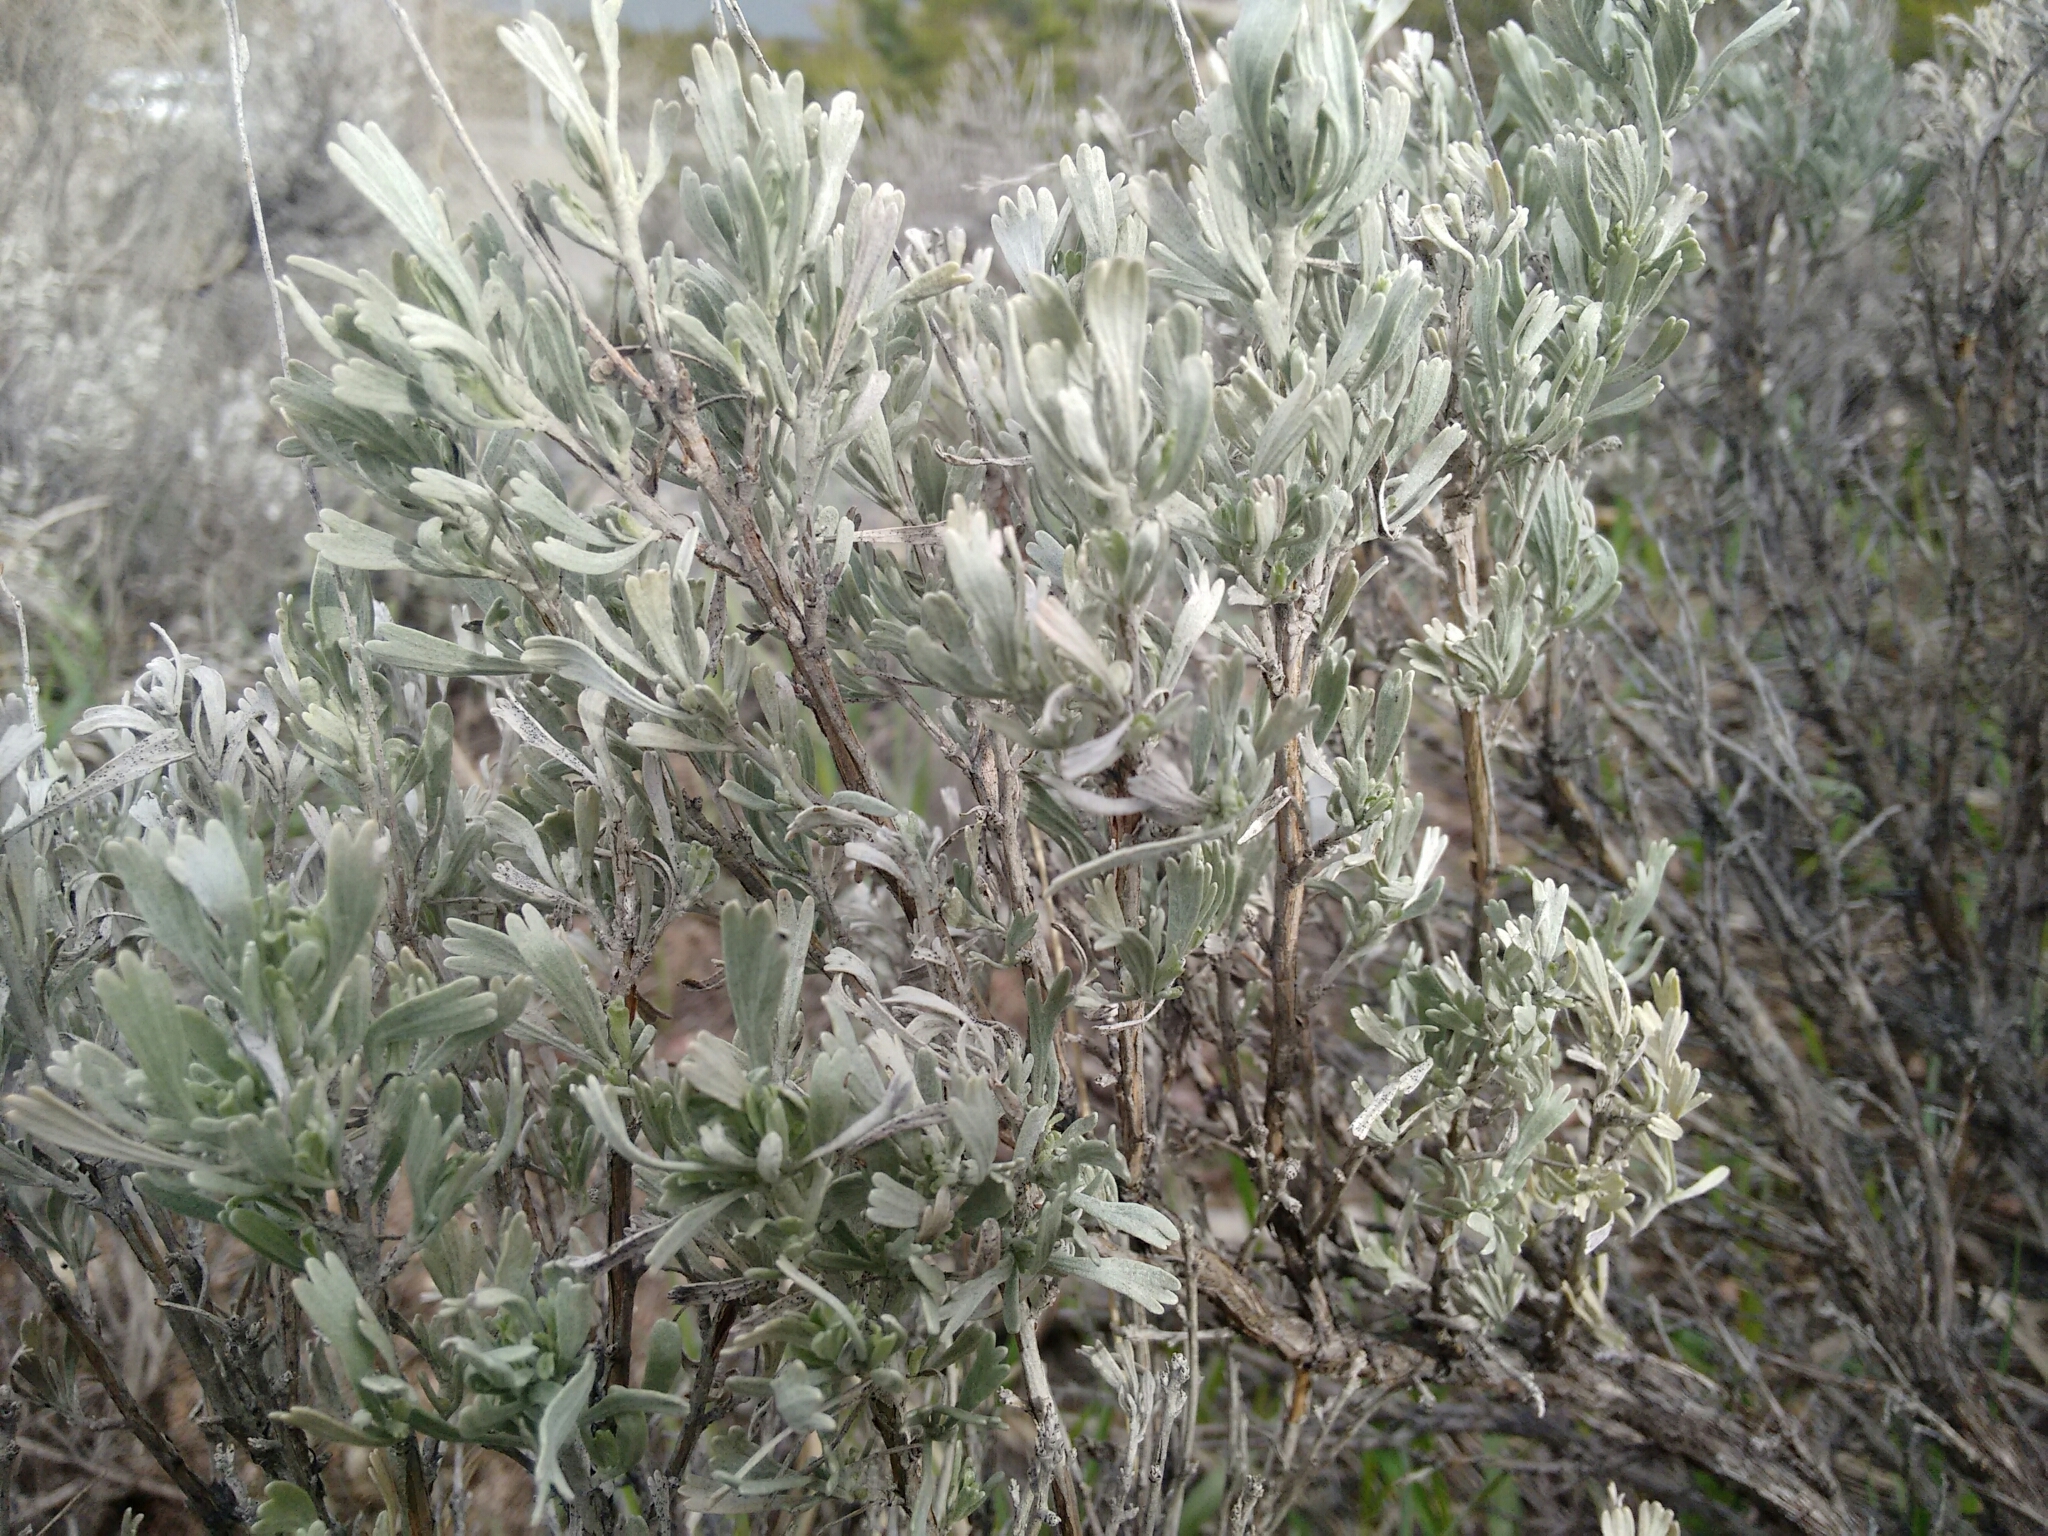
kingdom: Plantae
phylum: Tracheophyta
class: Magnoliopsida
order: Asterales
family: Asteraceae
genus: Artemisia
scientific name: Artemisia tridentata
